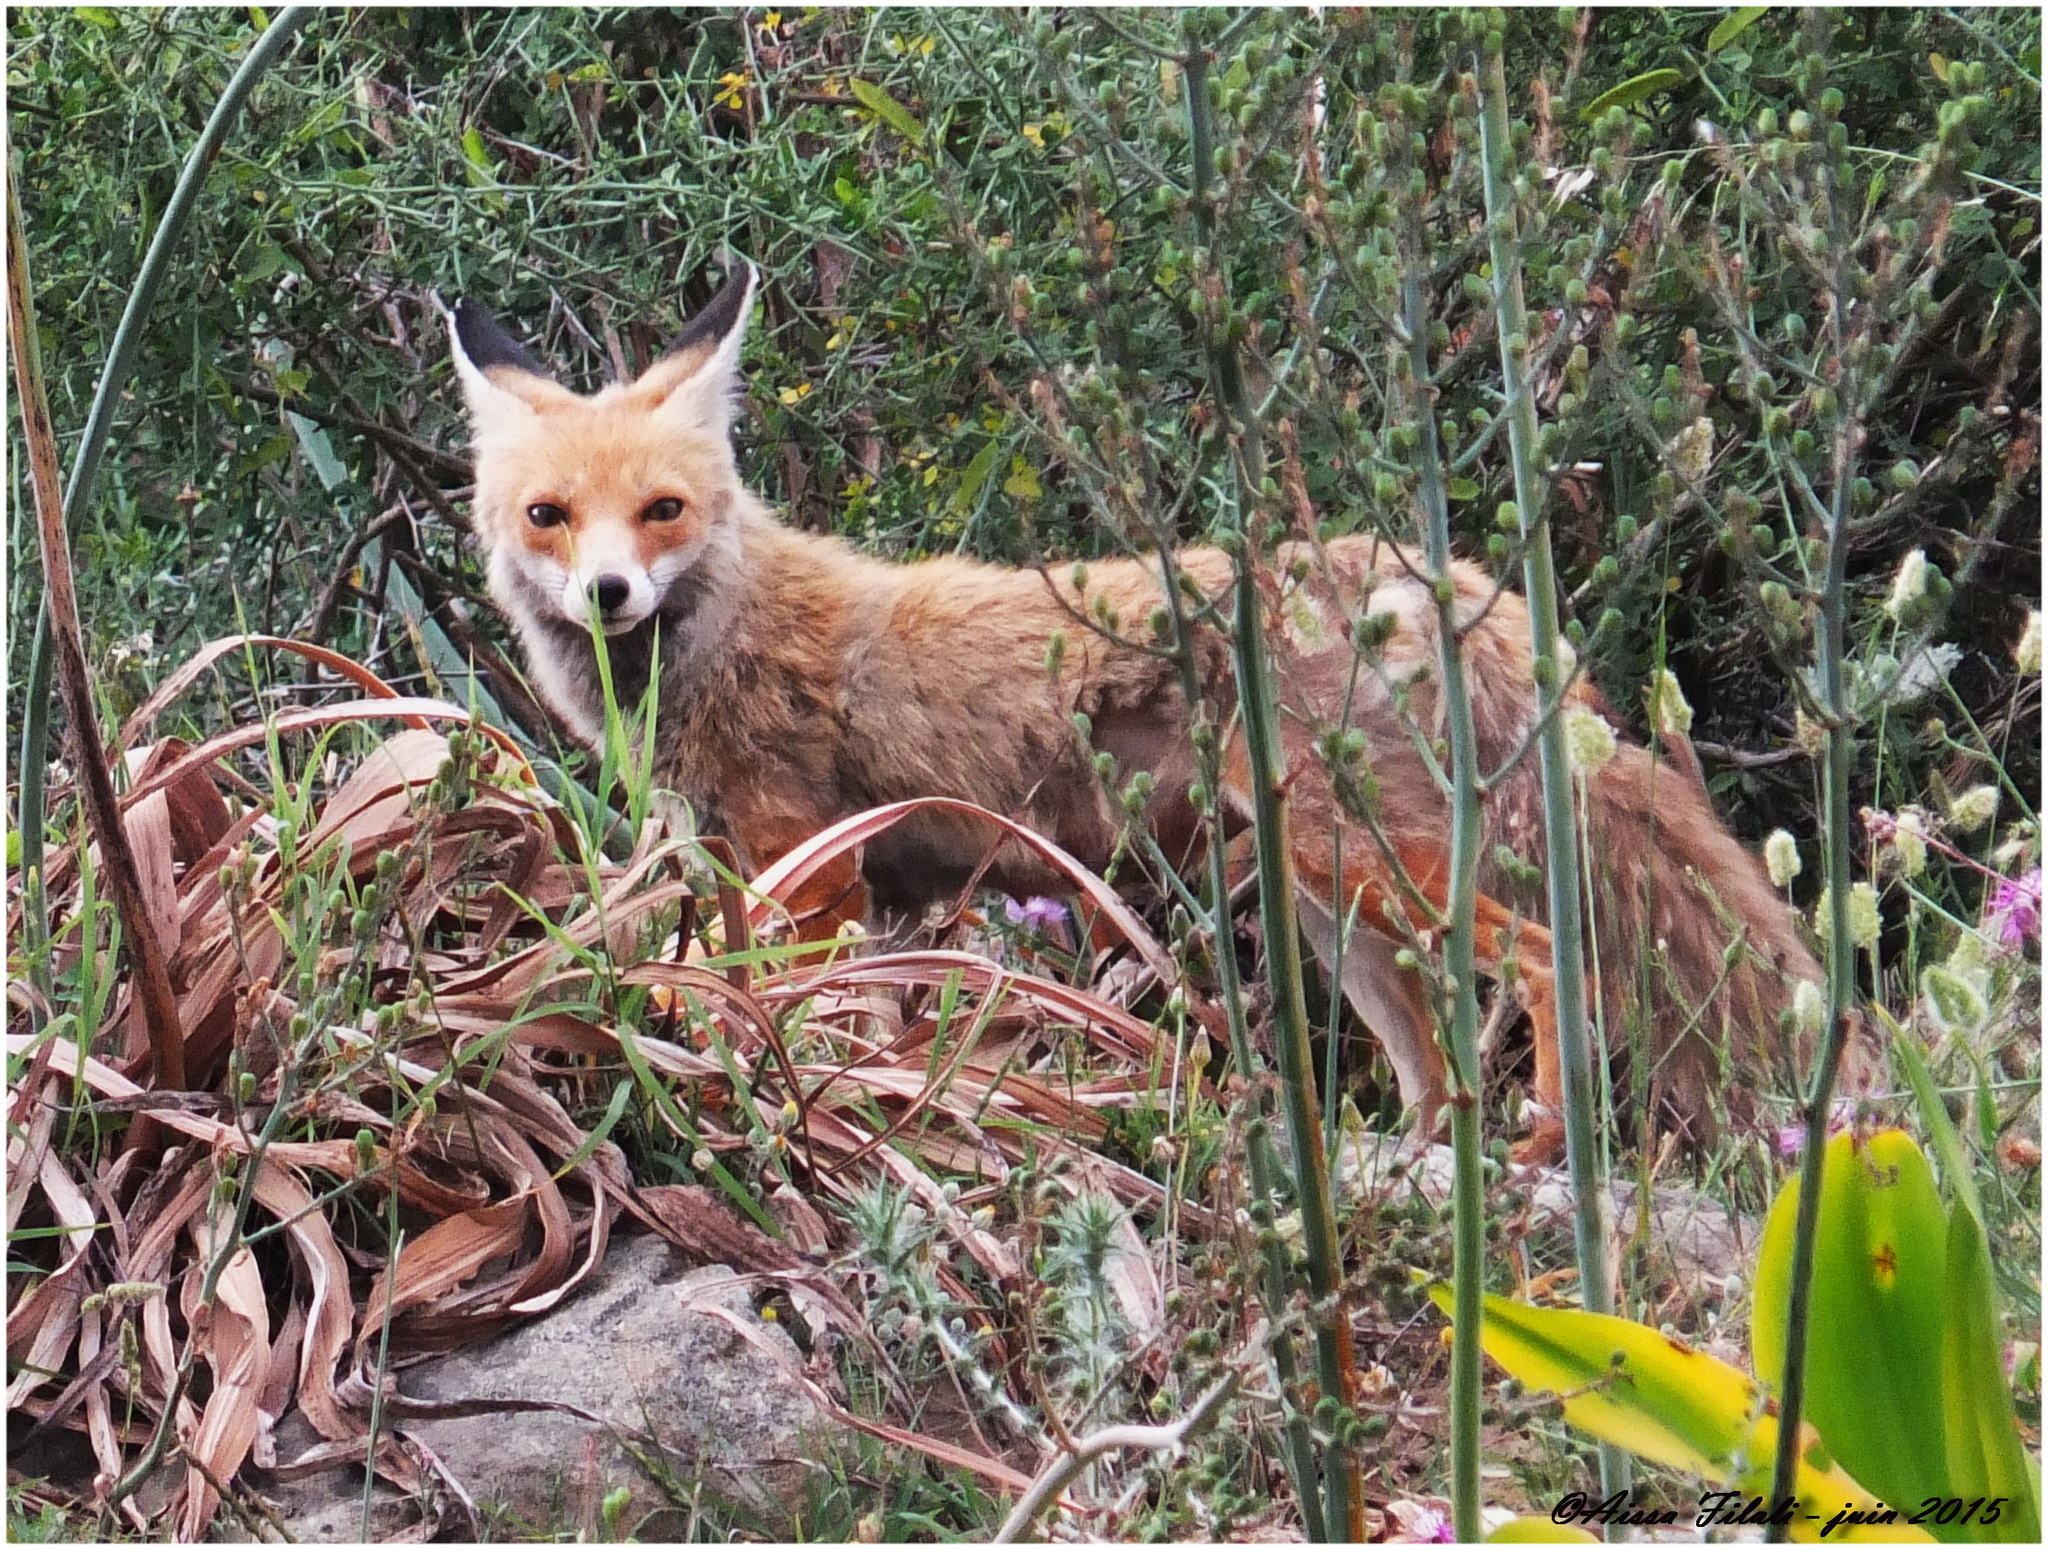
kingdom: Animalia
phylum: Chordata
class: Mammalia
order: Carnivora
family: Canidae
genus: Vulpes
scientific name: Vulpes vulpes
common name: Red fox
